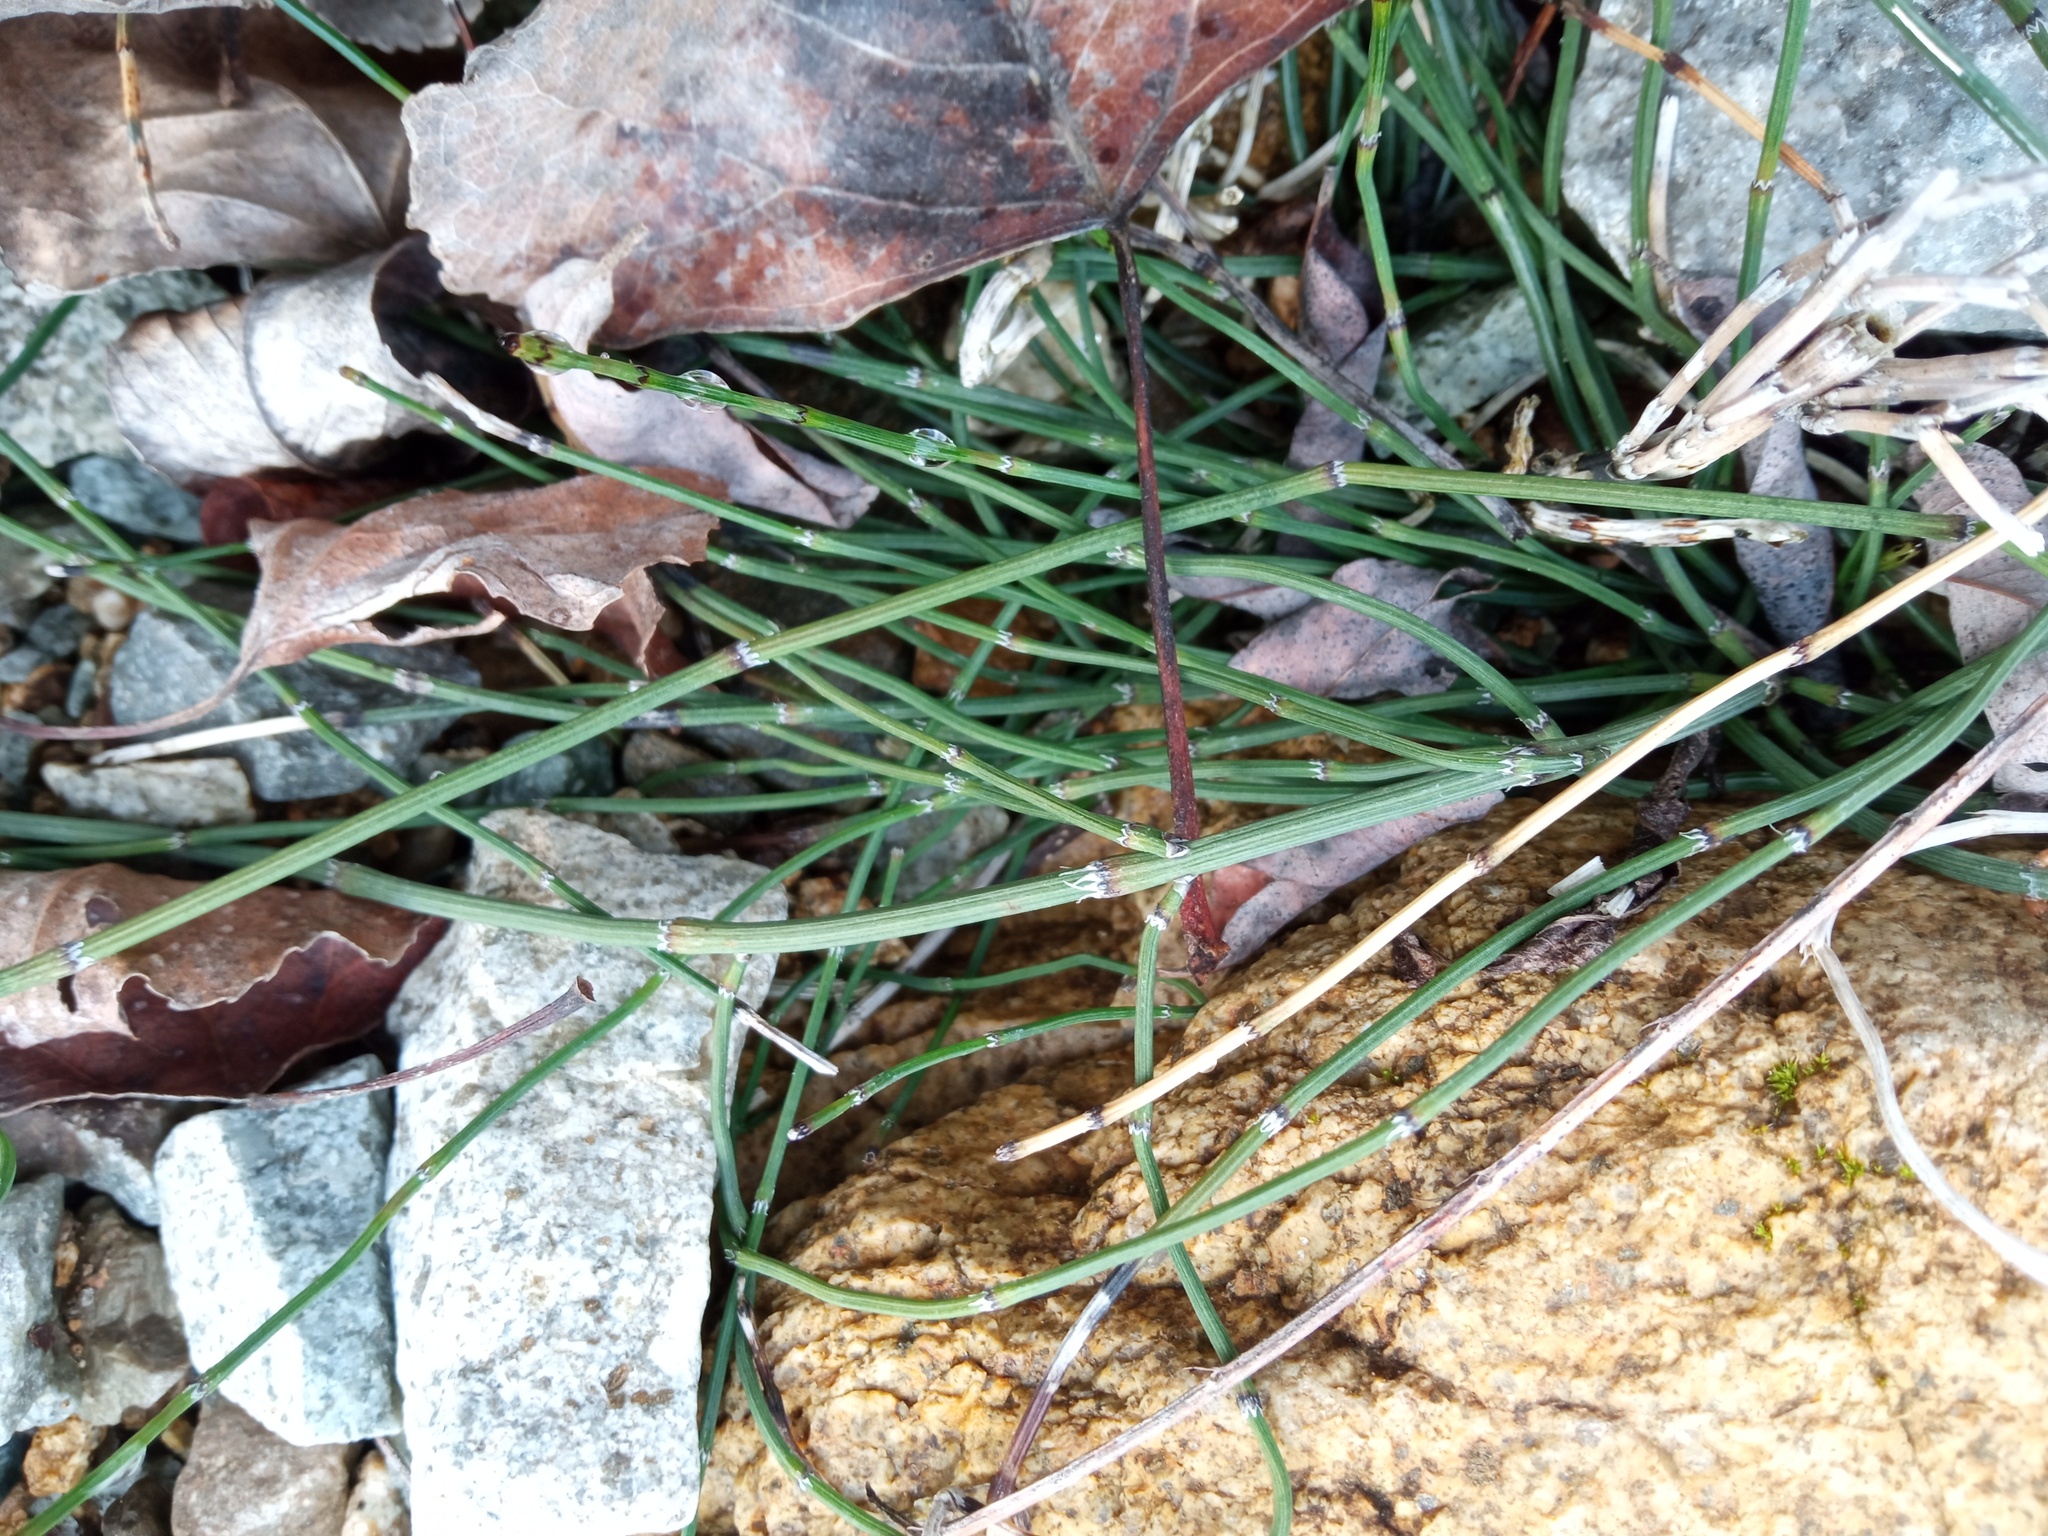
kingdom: Plantae
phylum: Tracheophyta
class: Polypodiopsida
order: Equisetales
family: Equisetaceae
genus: Equisetum
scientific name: Equisetum ramosissimum
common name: Branched horsetail
